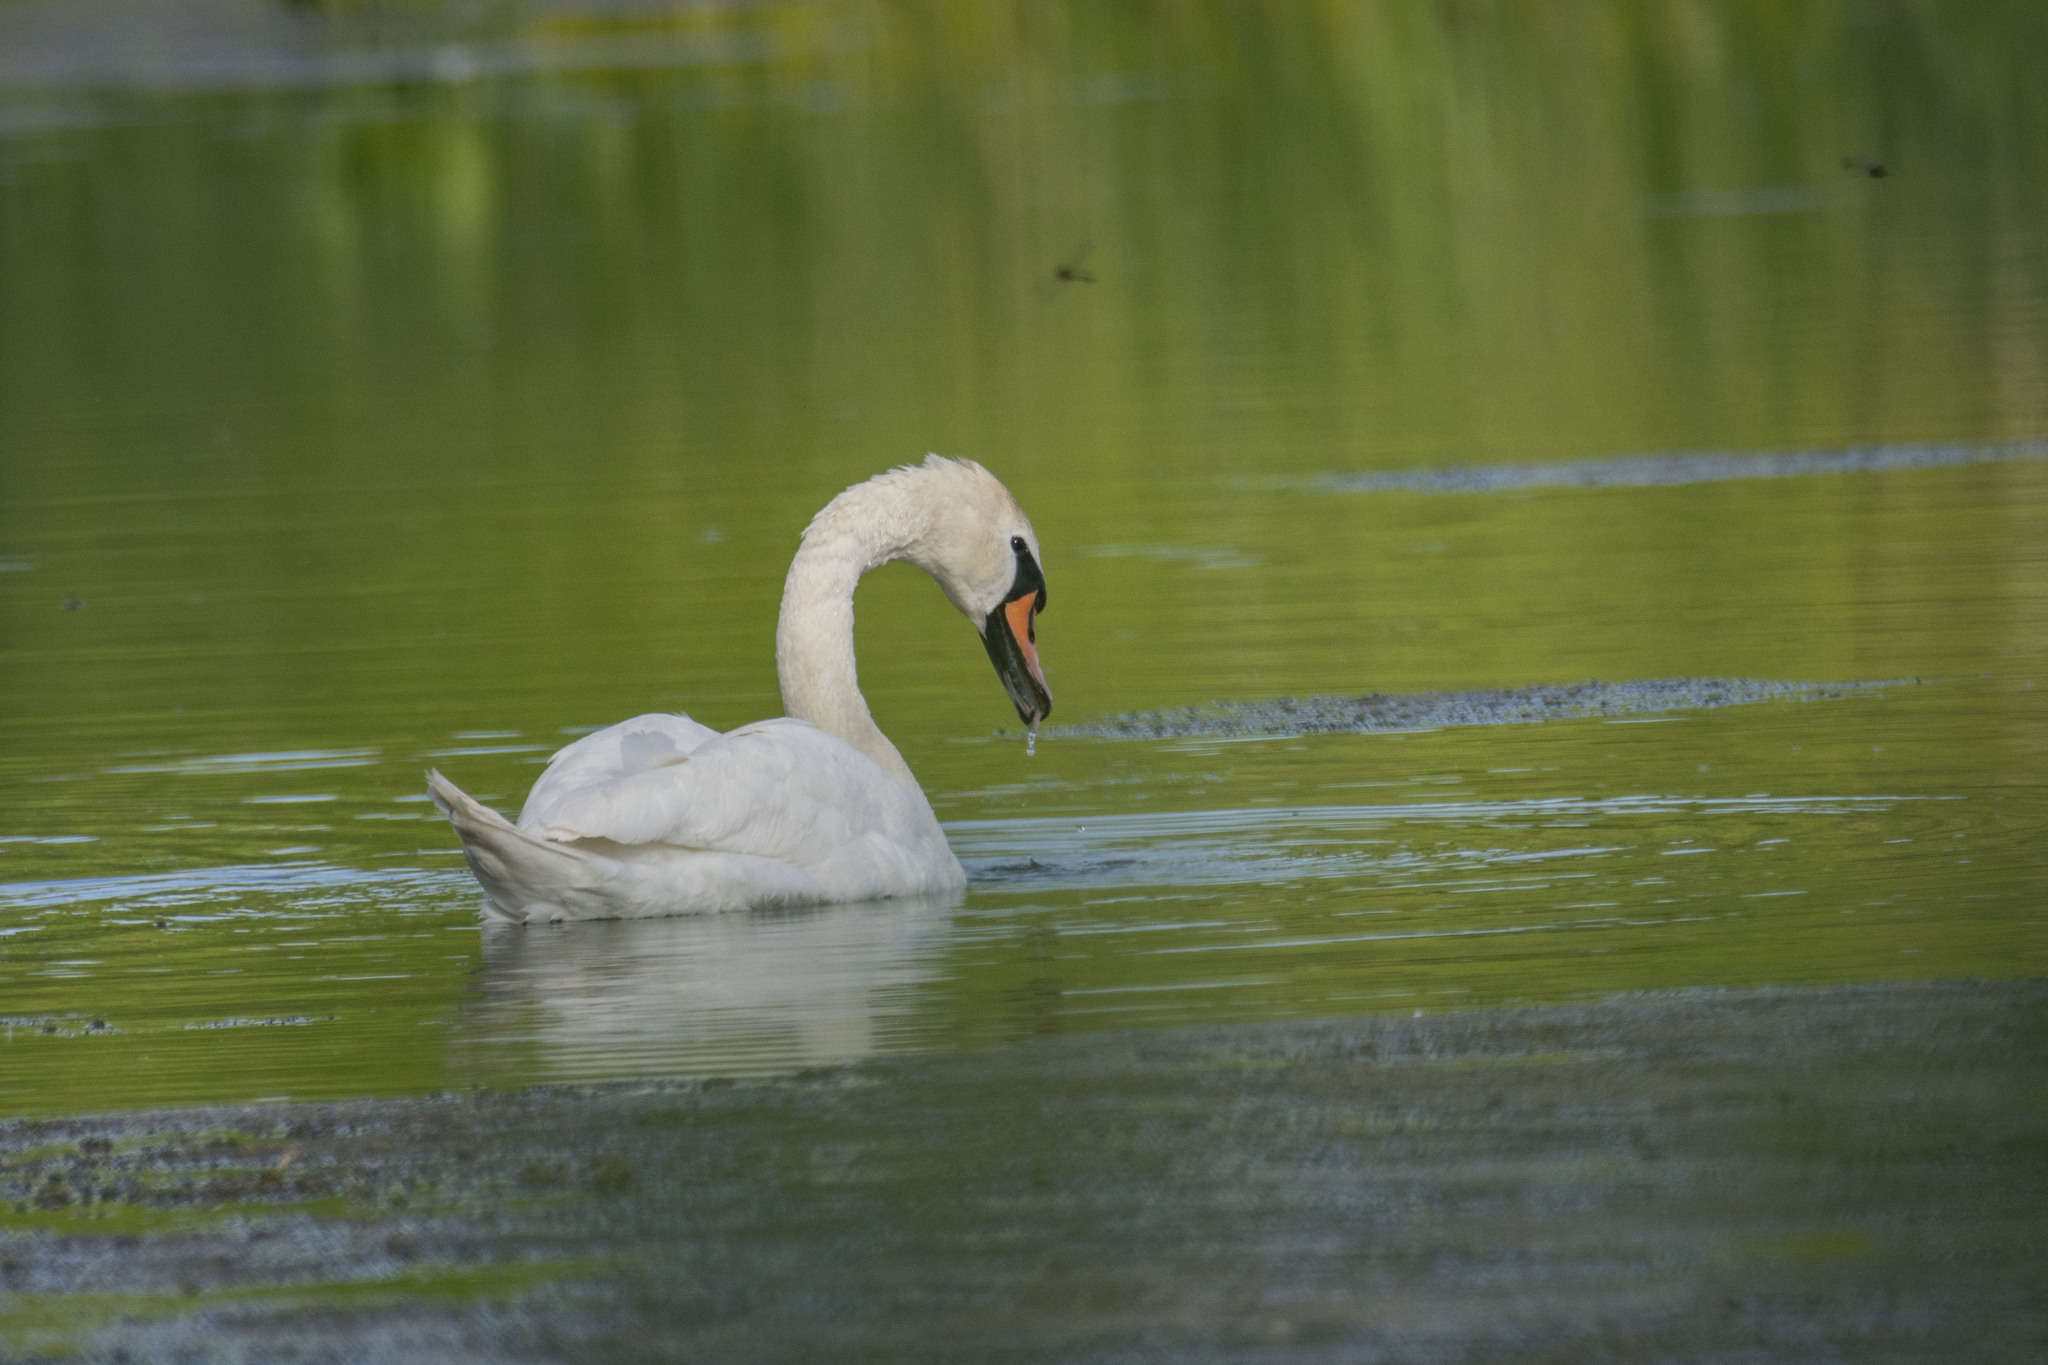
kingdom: Animalia
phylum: Chordata
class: Aves
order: Anseriformes
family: Anatidae
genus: Cygnus
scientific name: Cygnus olor
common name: Mute swan
